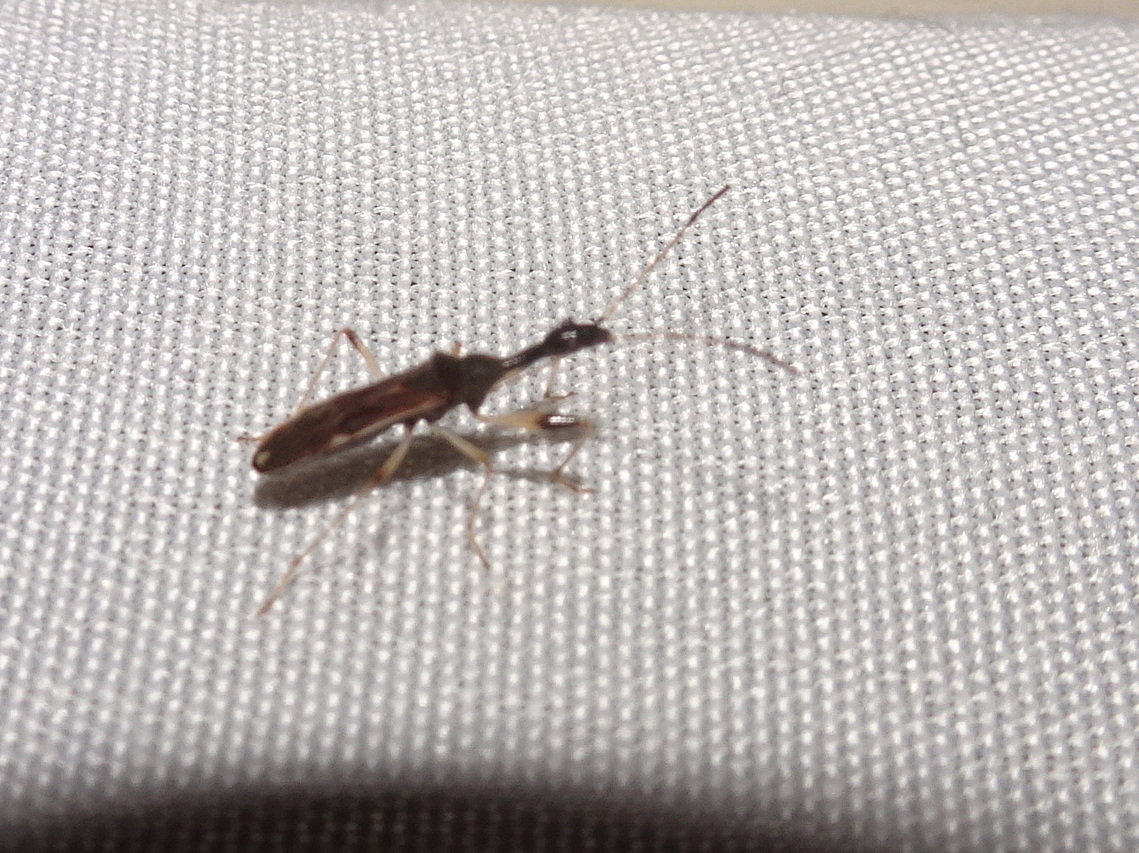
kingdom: Animalia
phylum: Arthropoda
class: Insecta
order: Hemiptera
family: Rhyparochromidae
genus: Myodocha
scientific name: Myodocha serripes
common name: Long-necked seed bug
